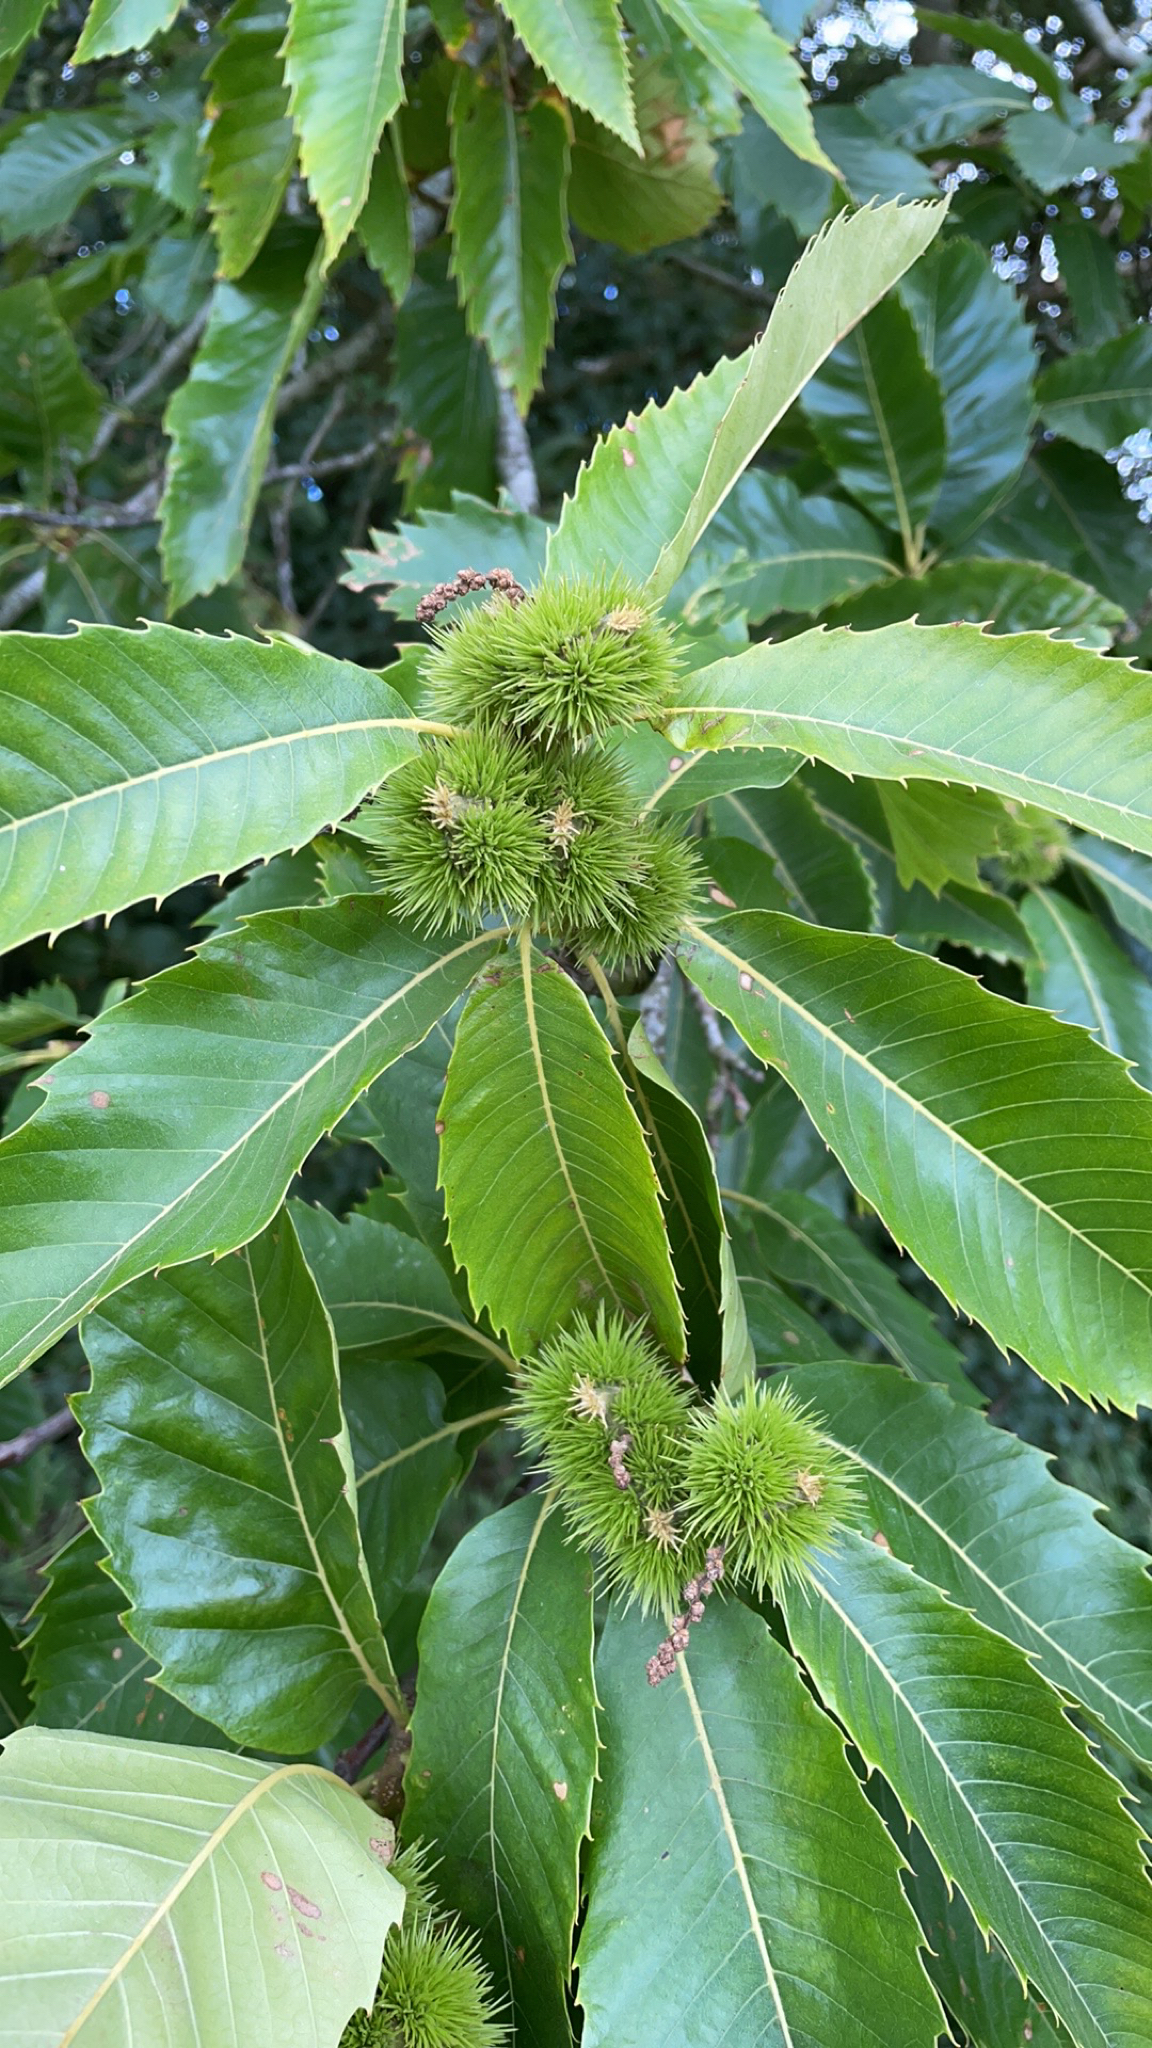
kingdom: Plantae
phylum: Tracheophyta
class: Magnoliopsida
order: Fagales
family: Fagaceae
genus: Castanea
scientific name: Castanea sativa
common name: Sweet chestnut
